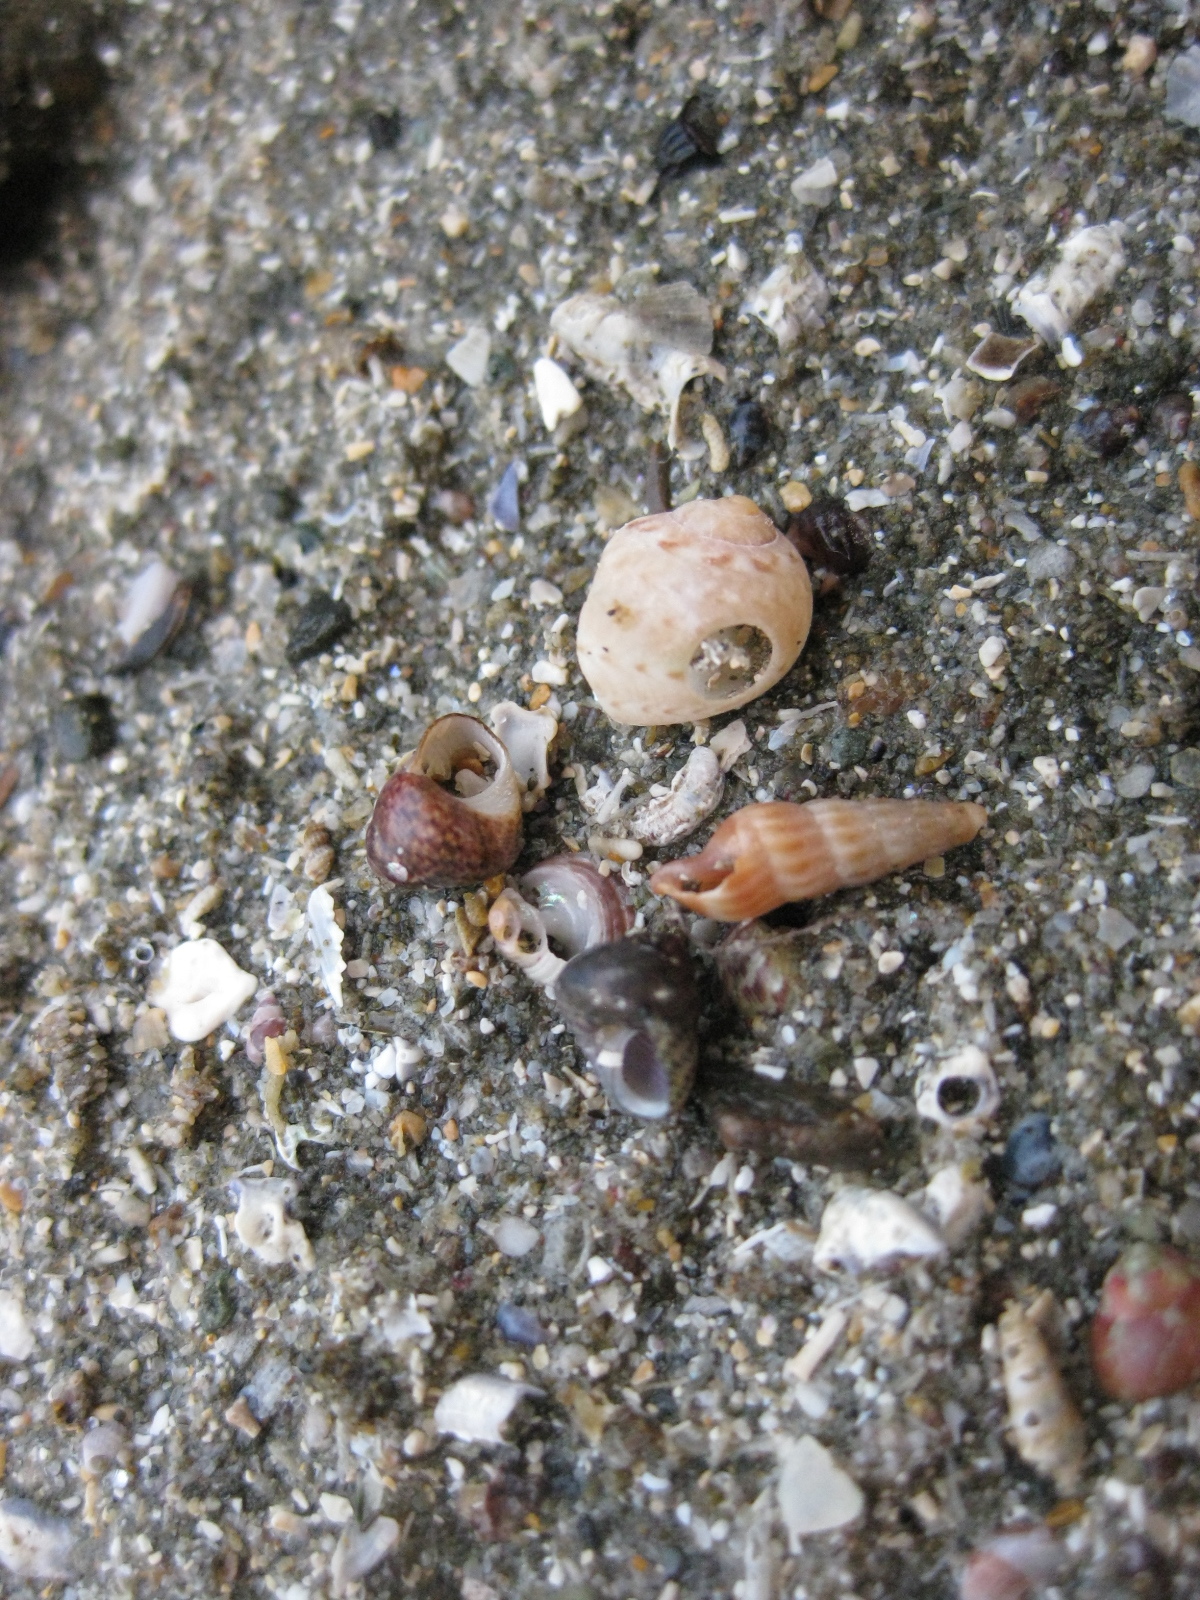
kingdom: Animalia
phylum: Mollusca
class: Gastropoda
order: Neogastropoda
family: Terebridae
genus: Duplicaria
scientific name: Duplicaria tristis
